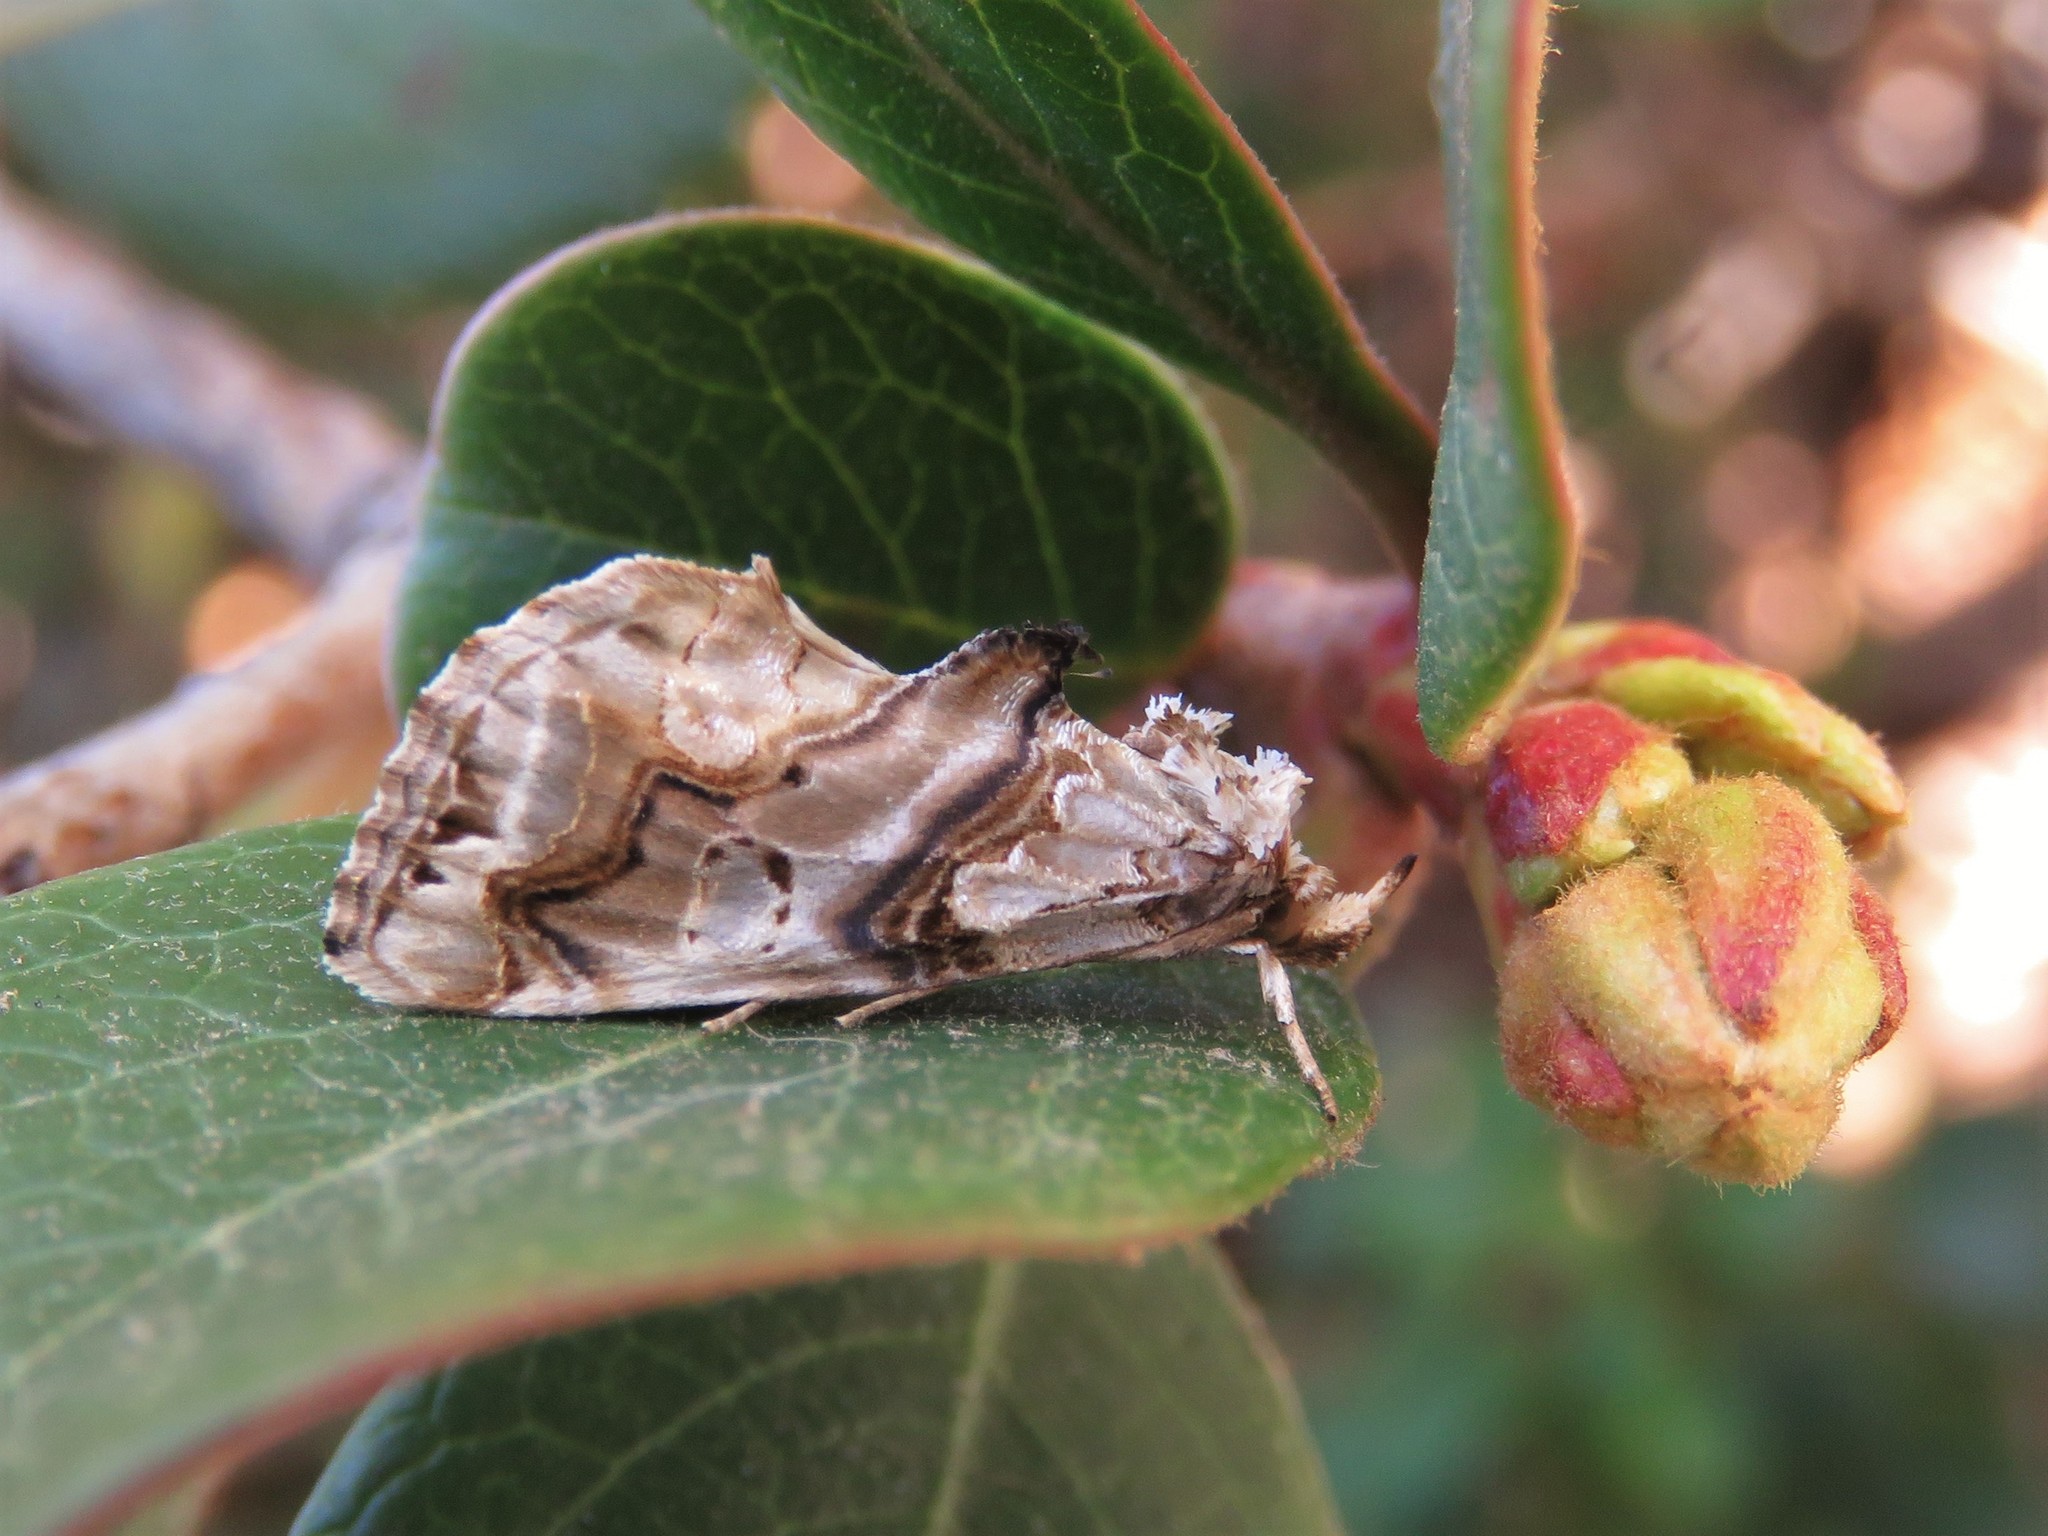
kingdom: Animalia
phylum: Arthropoda
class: Insecta
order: Lepidoptera
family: Erebidae
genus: Plusiodonta
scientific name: Plusiodonta compressipalpis
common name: Moonseed moth
